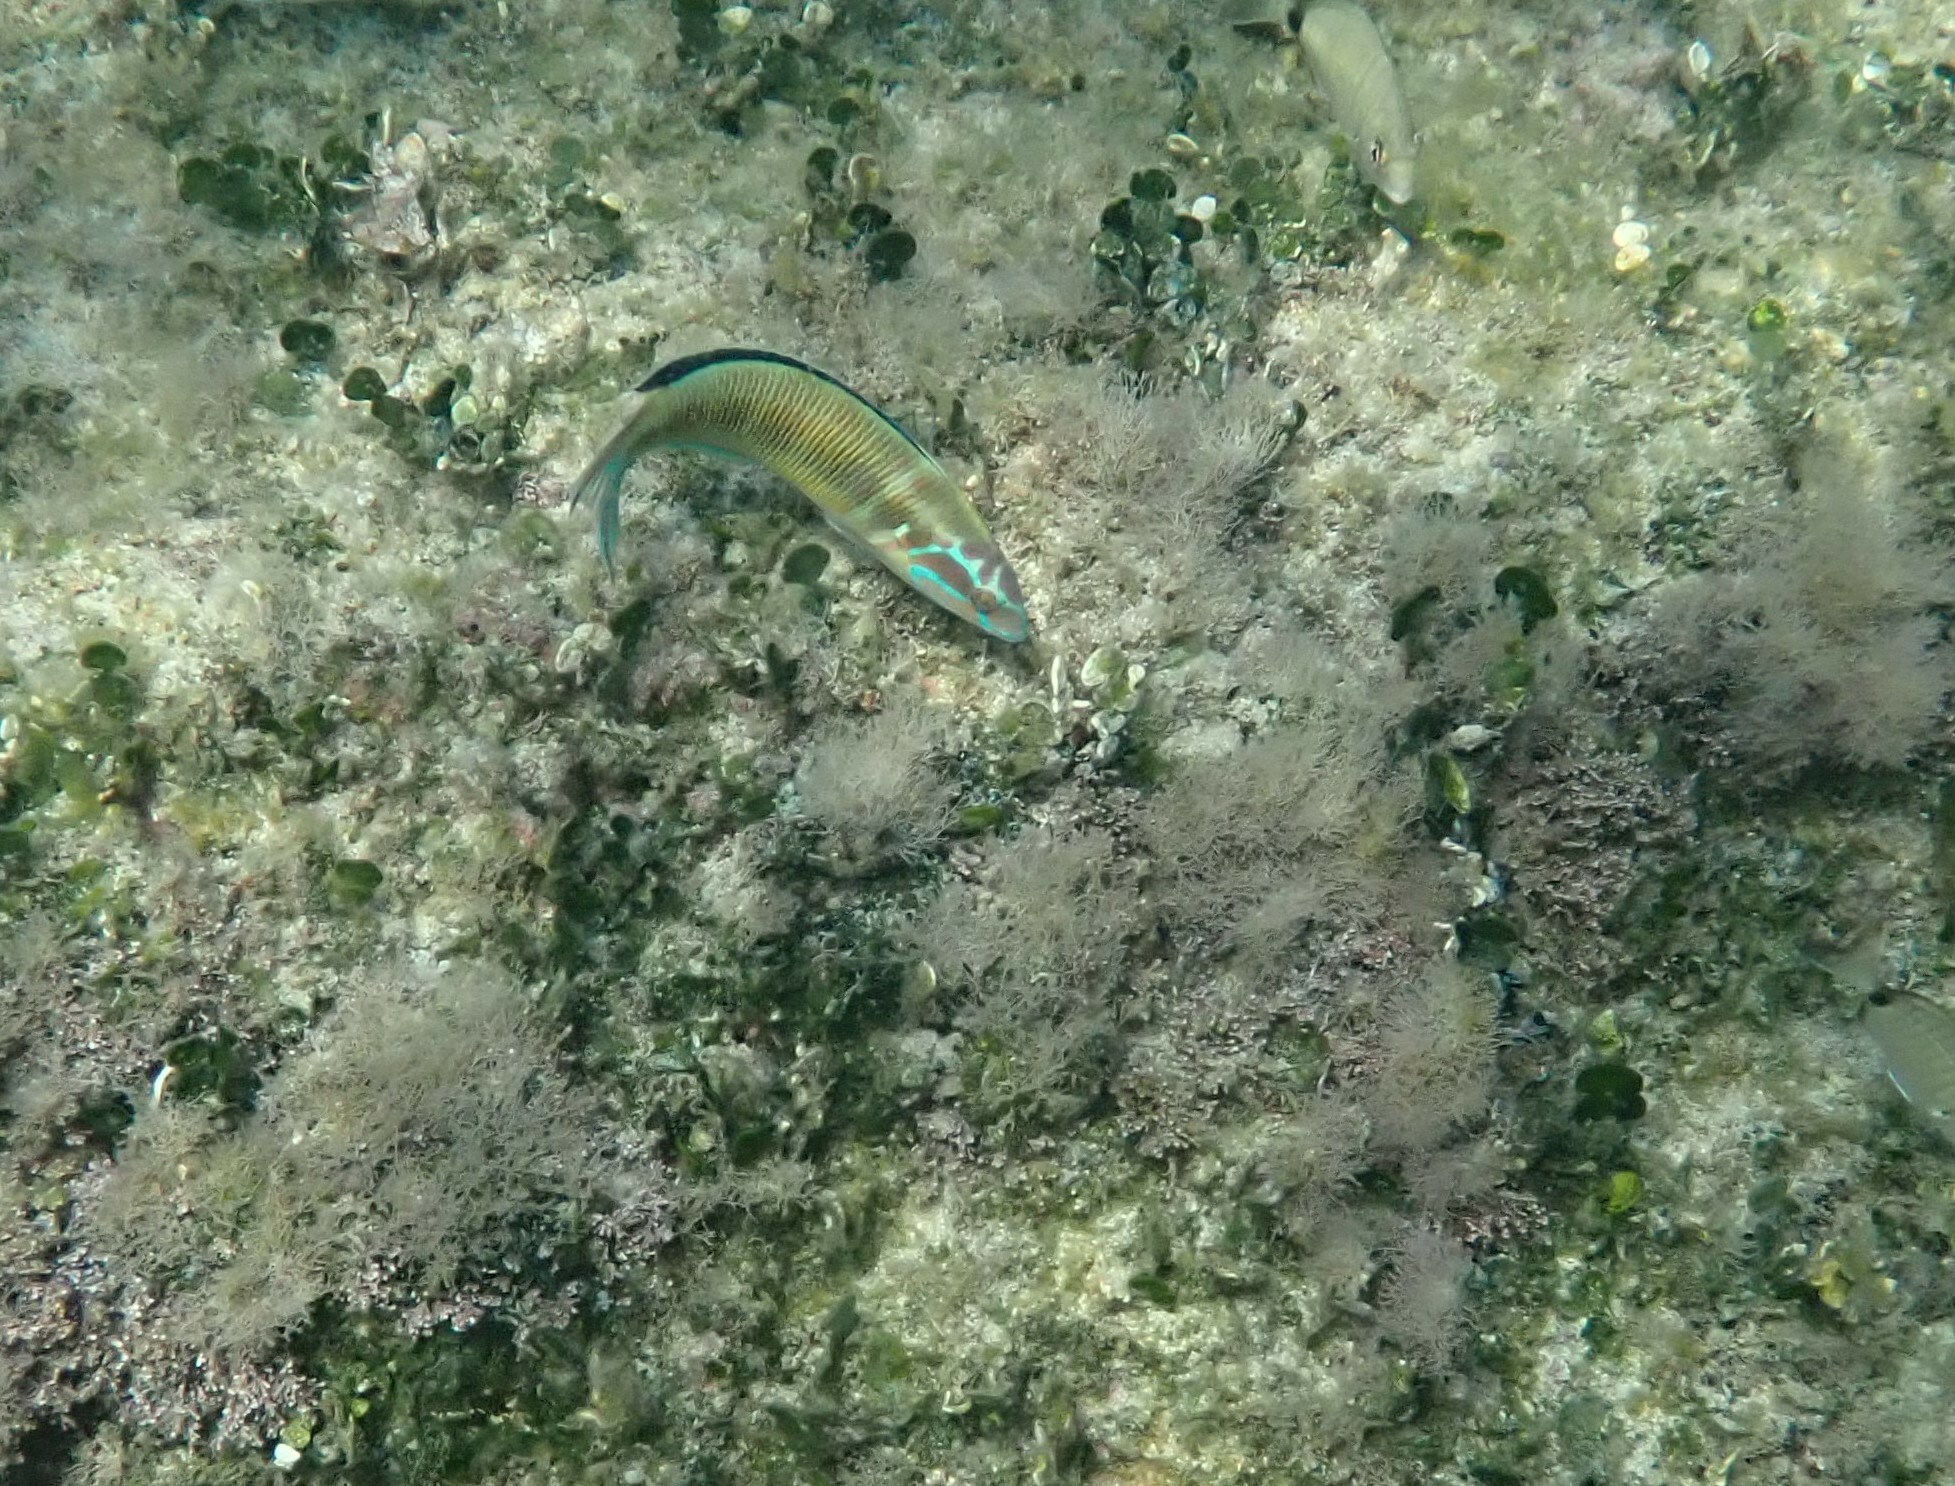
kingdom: Animalia
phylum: Chordata
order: Perciformes
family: Labridae
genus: Thalassoma
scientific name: Thalassoma pavo
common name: Ornate wrasse
